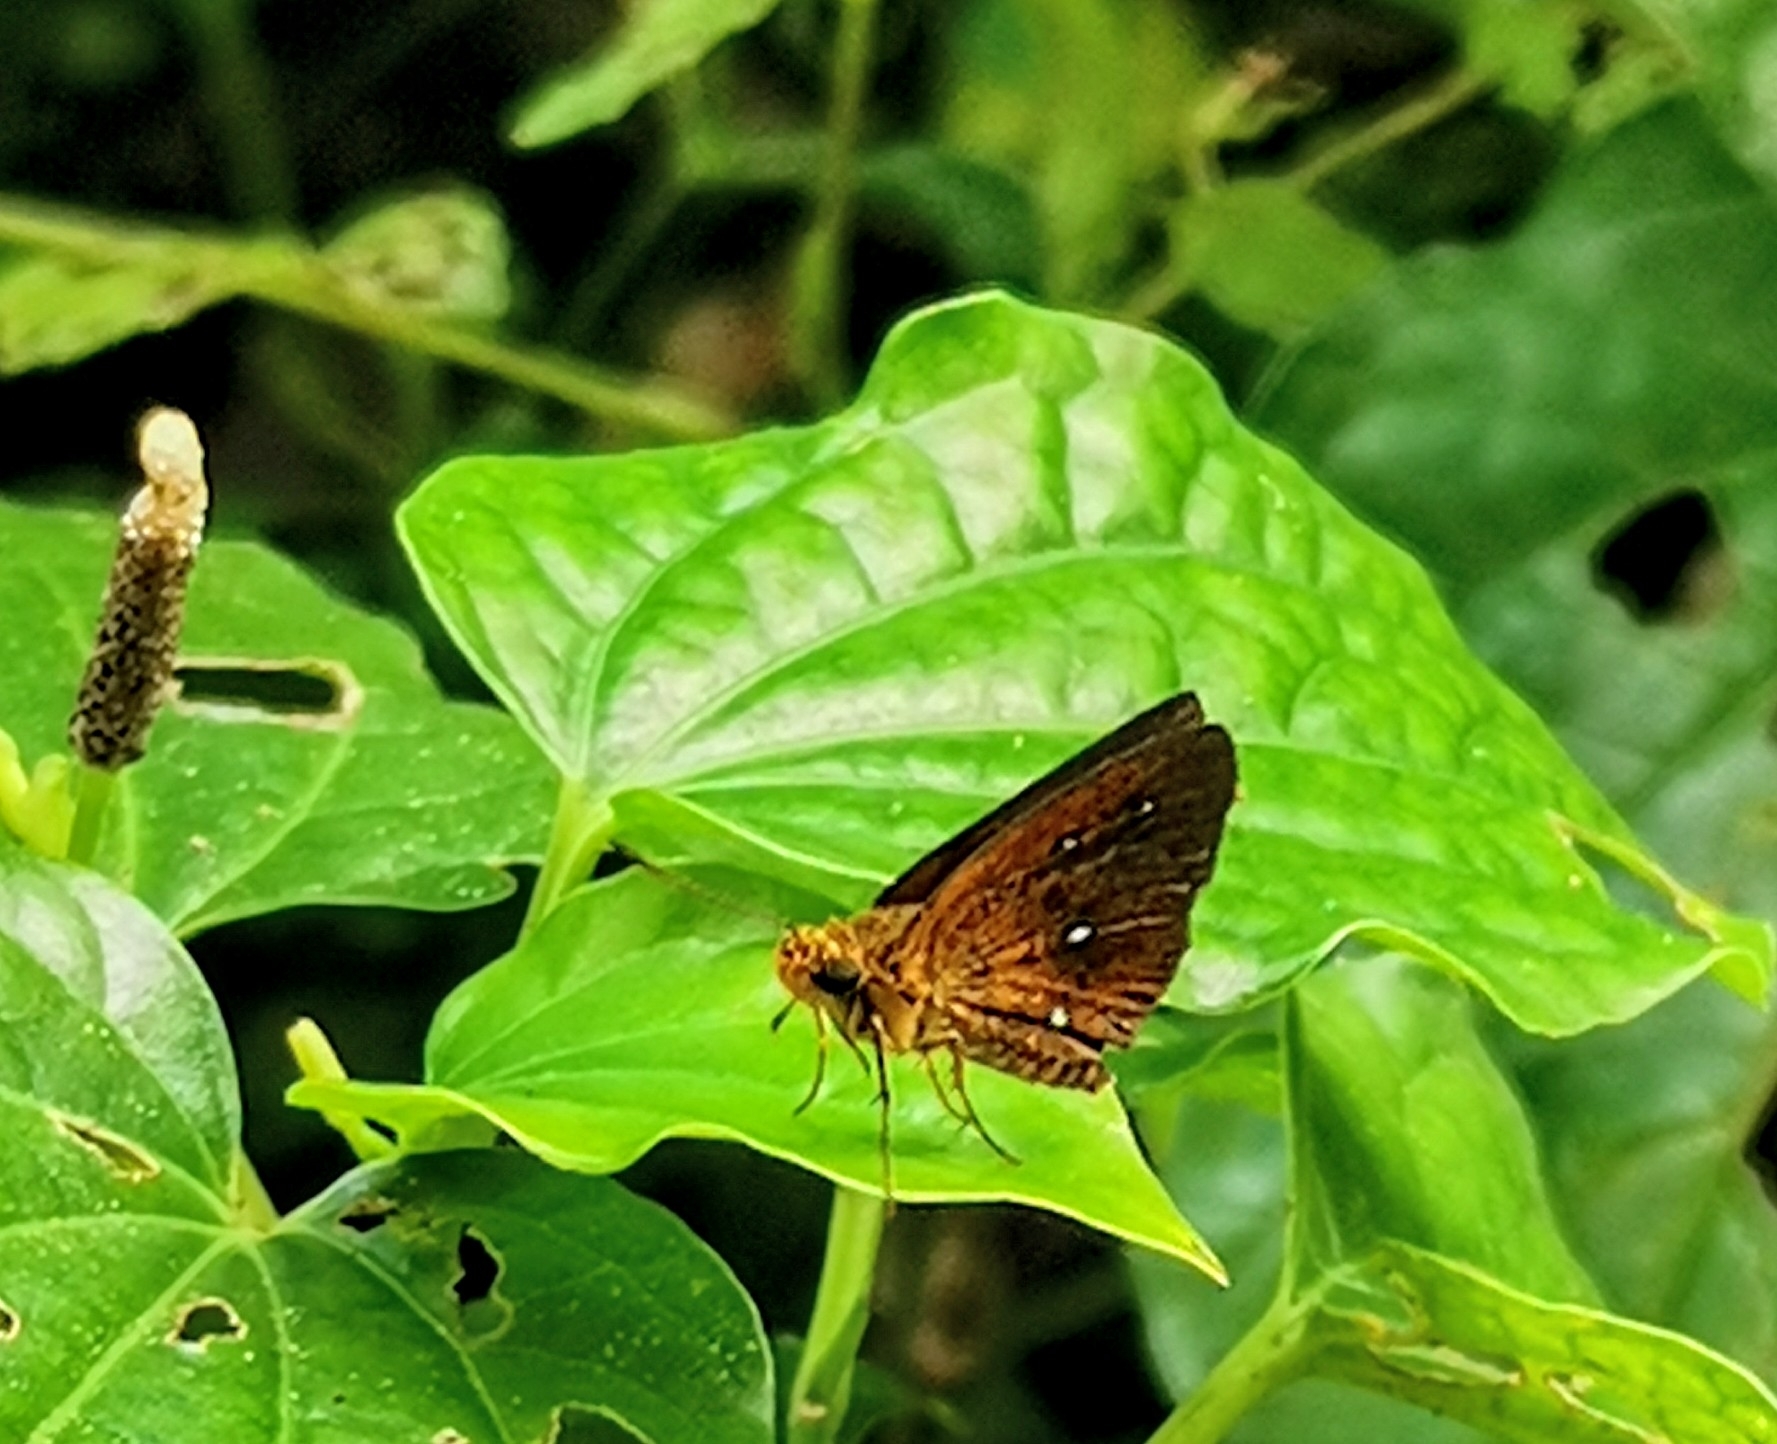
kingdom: Animalia
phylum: Arthropoda
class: Insecta
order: Lepidoptera
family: Hesperiidae
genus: Iambrix
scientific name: Iambrix salsala
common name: Chestnut bob
